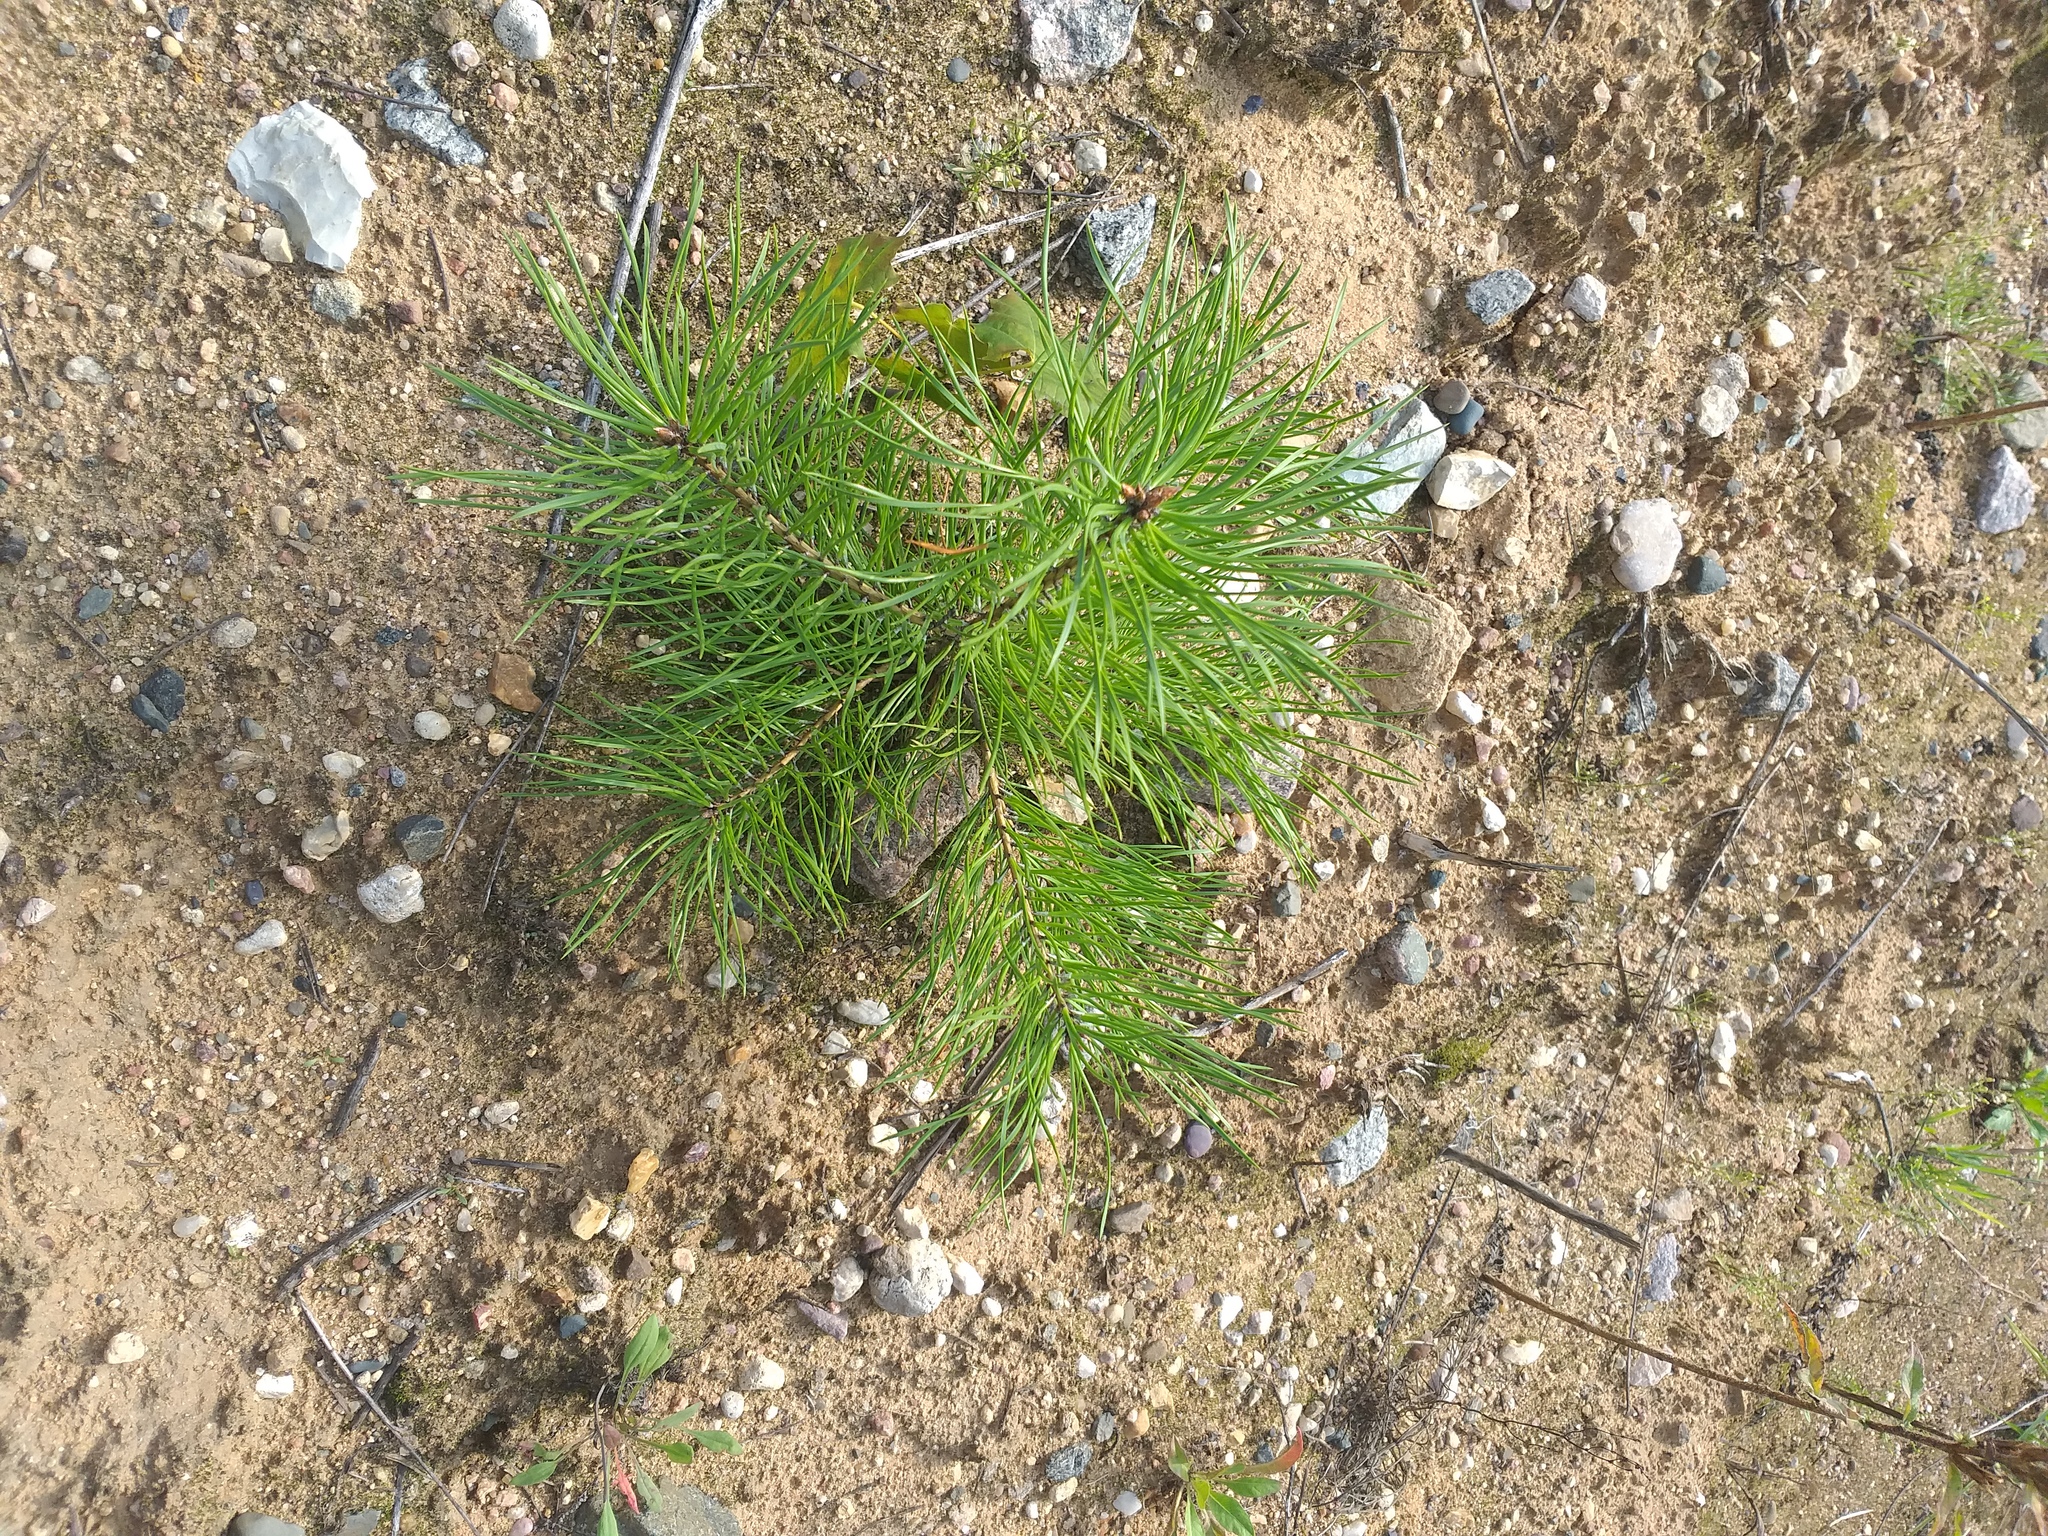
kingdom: Plantae
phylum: Tracheophyta
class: Pinopsida
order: Pinales
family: Pinaceae
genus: Pinus
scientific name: Pinus sylvestris
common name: Scots pine
